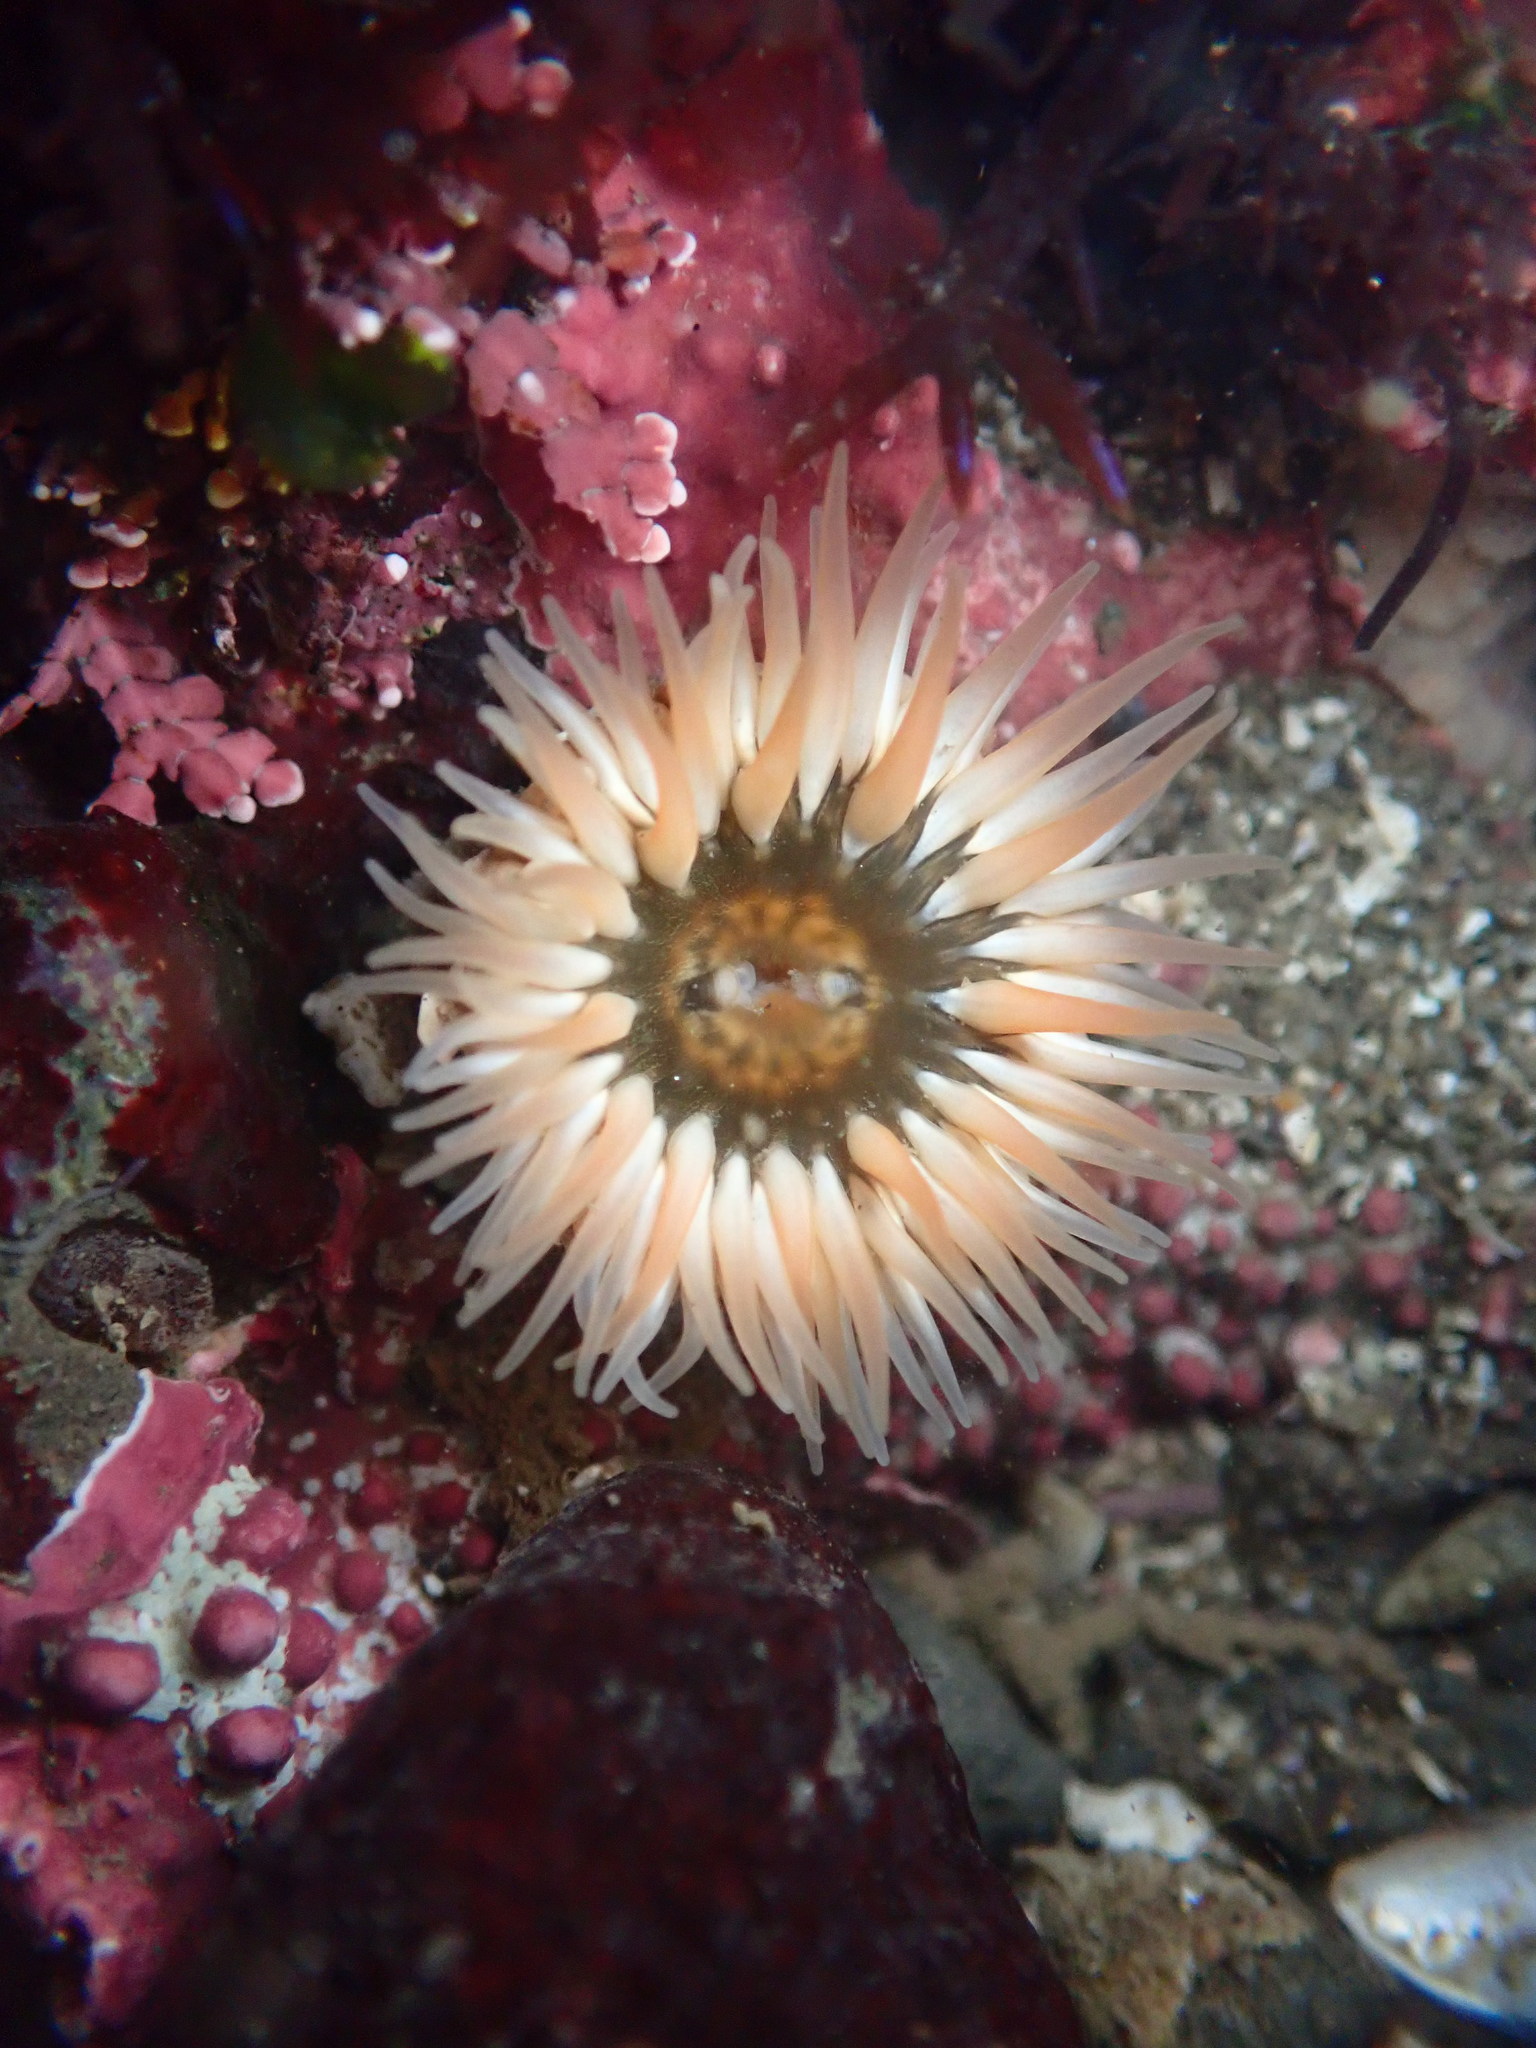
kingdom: Animalia
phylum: Cnidaria
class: Anthozoa
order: Actiniaria
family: Actiniidae
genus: Anthopleura
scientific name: Anthopleura artemisia
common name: Buried sea anemone
